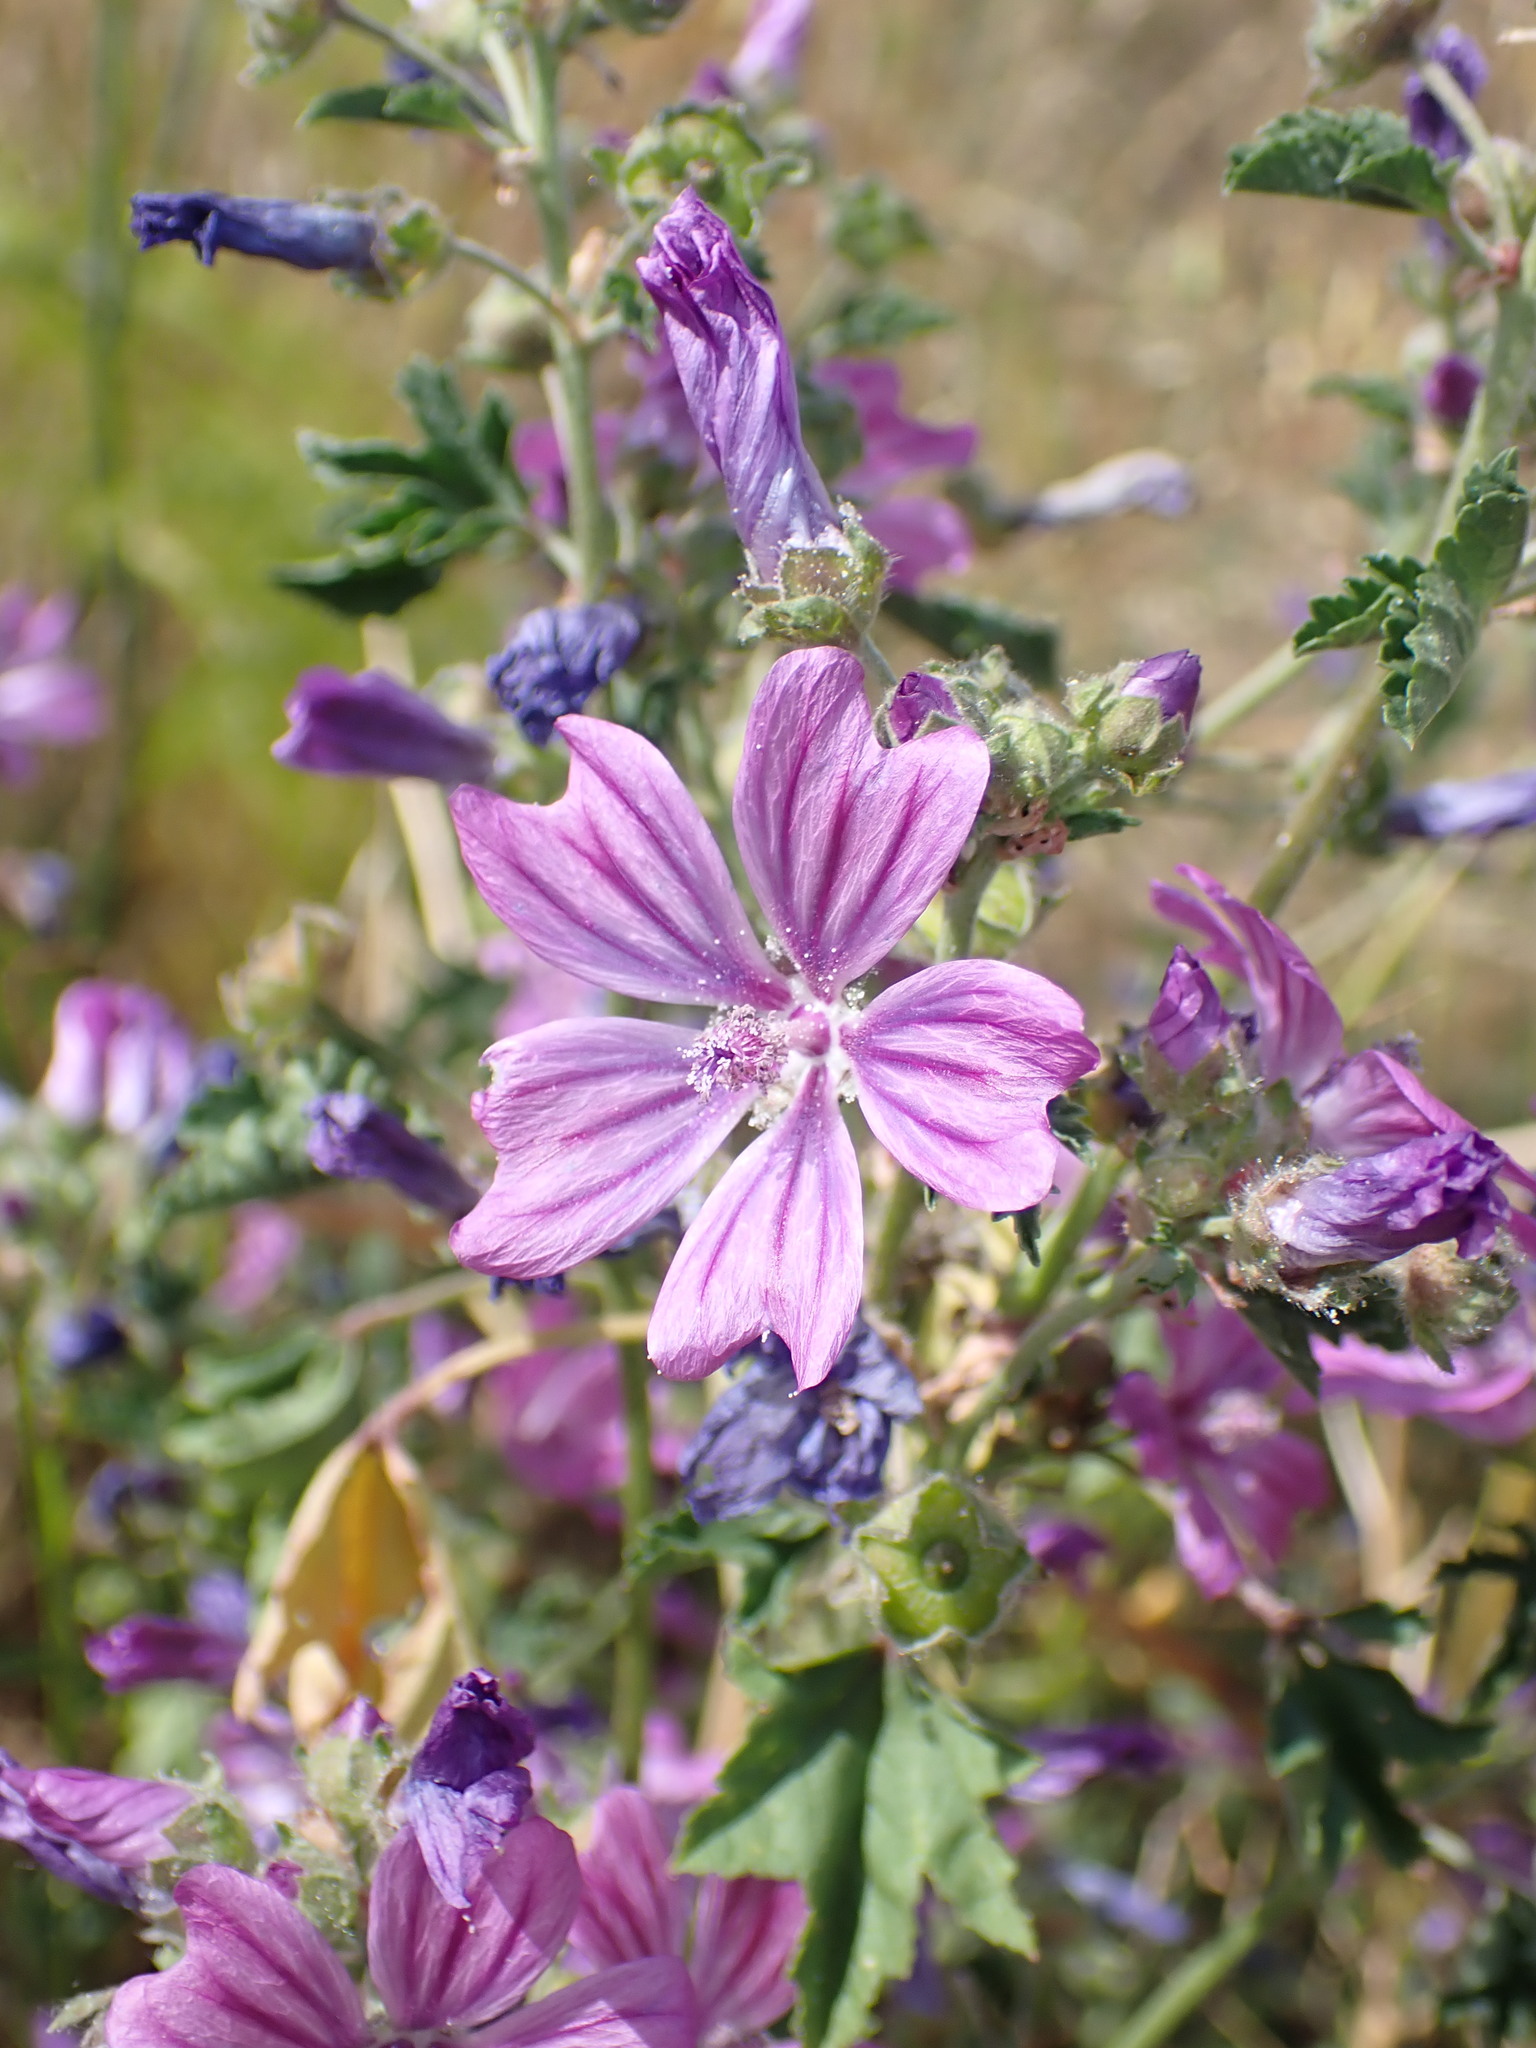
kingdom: Plantae
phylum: Tracheophyta
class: Magnoliopsida
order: Malvales
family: Malvaceae
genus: Malva
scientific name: Malva sylvestris
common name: Common mallow
